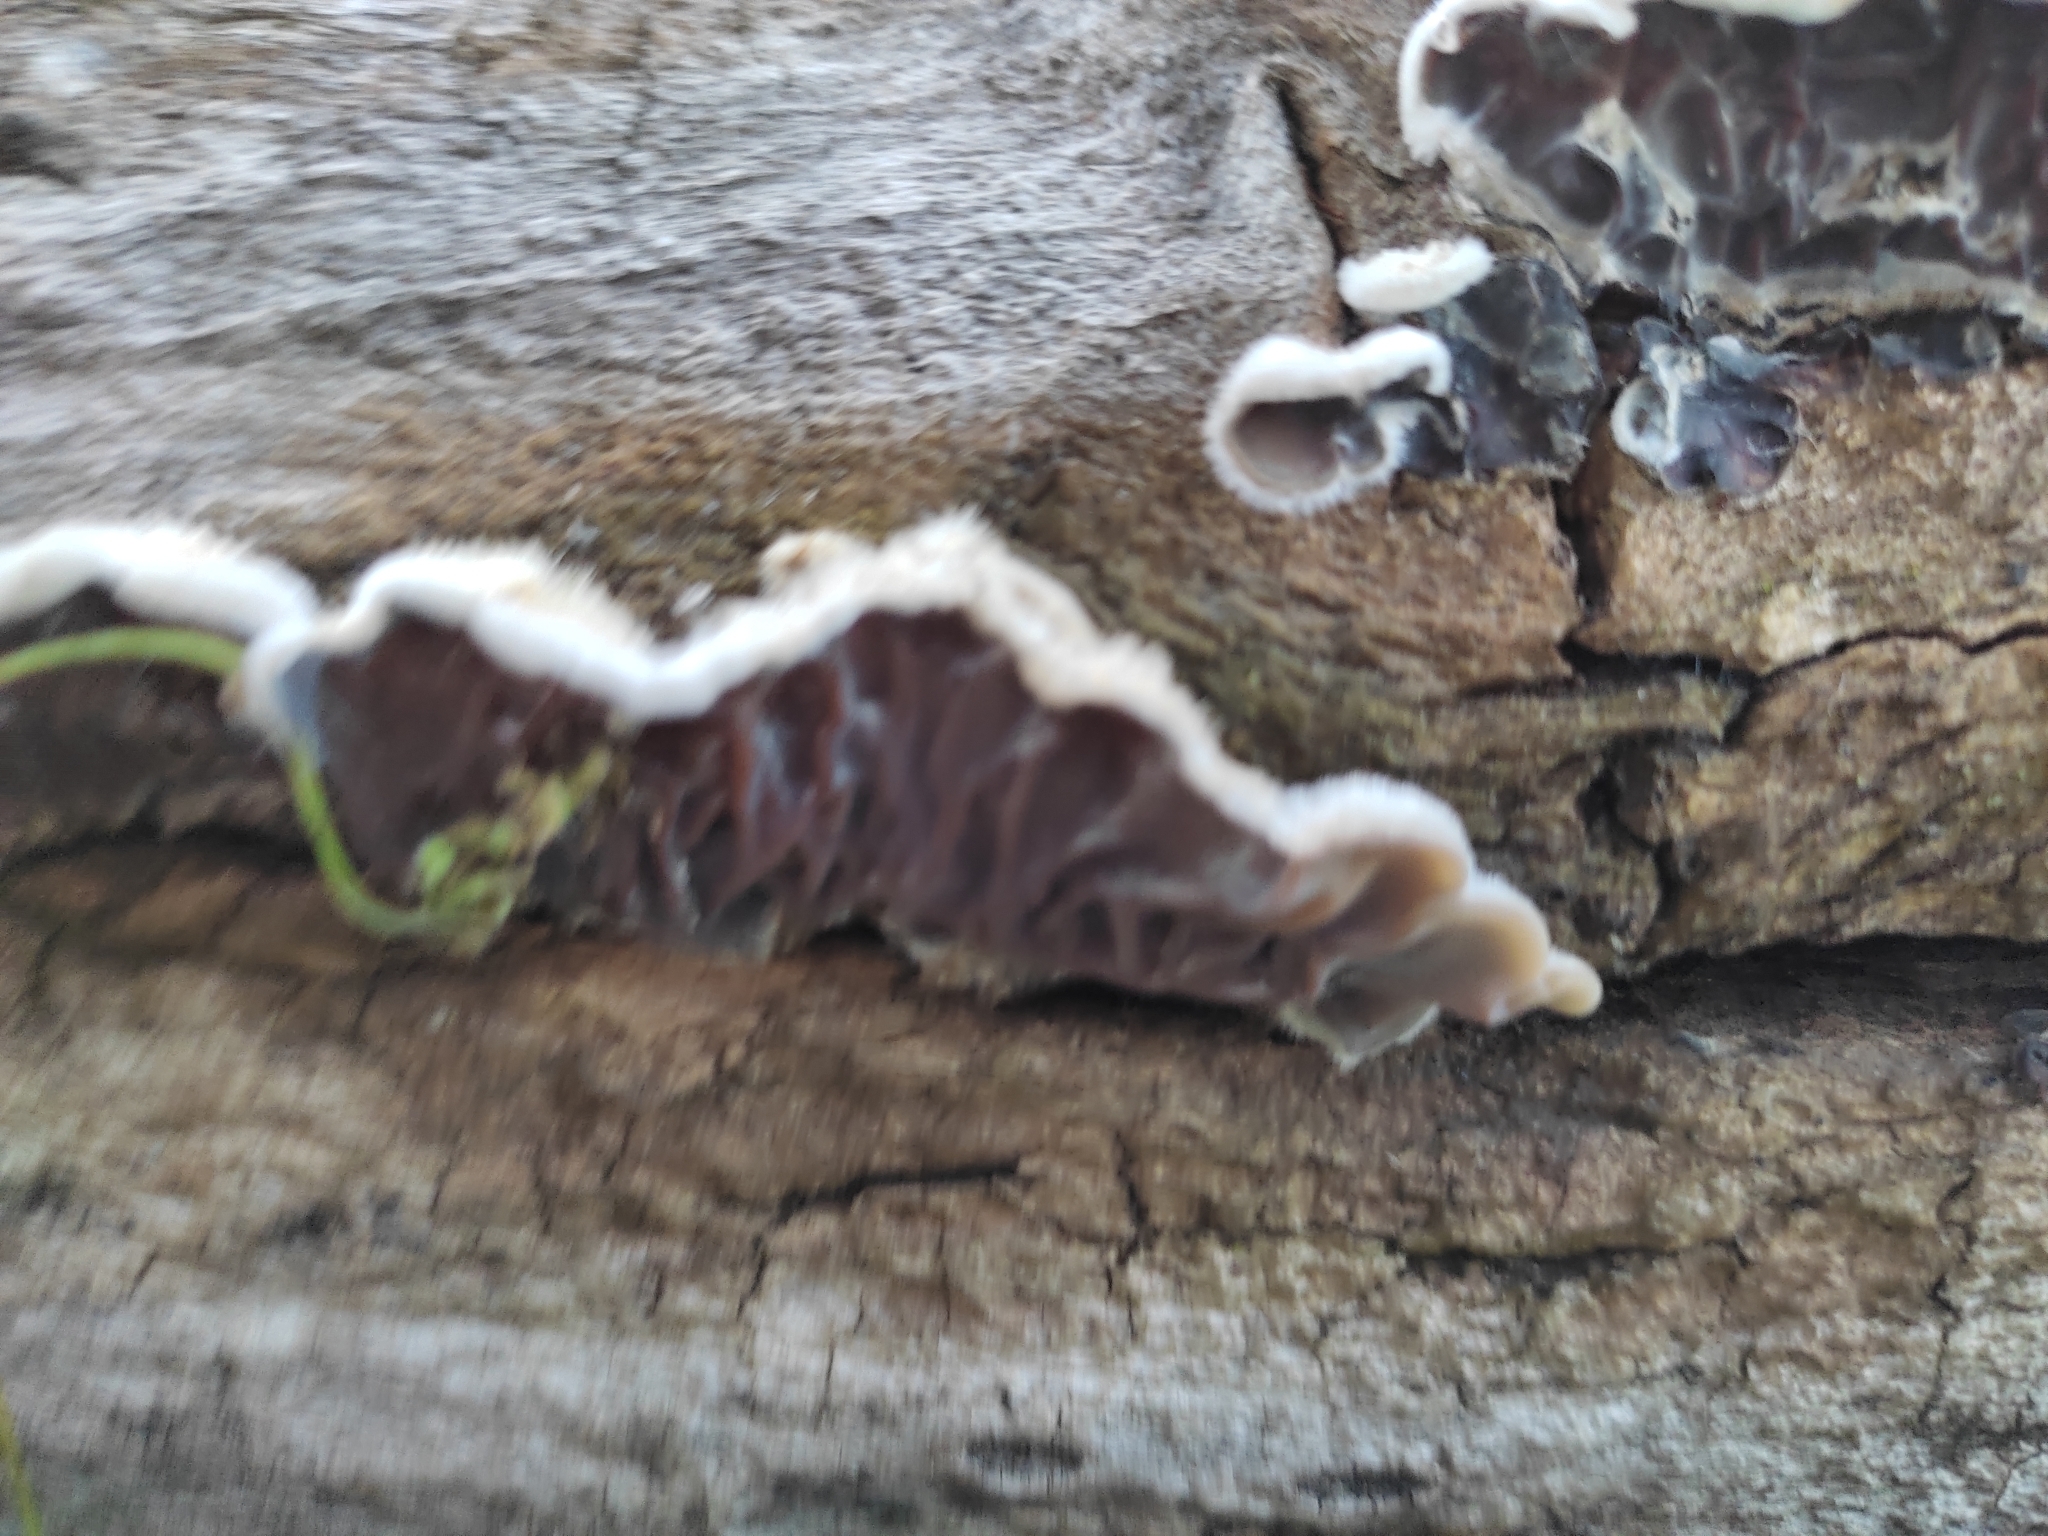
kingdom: Fungi
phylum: Basidiomycota
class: Agaricomycetes
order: Auriculariales
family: Auriculariaceae
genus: Auricularia
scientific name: Auricularia mesenterica
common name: Tripe fungus
